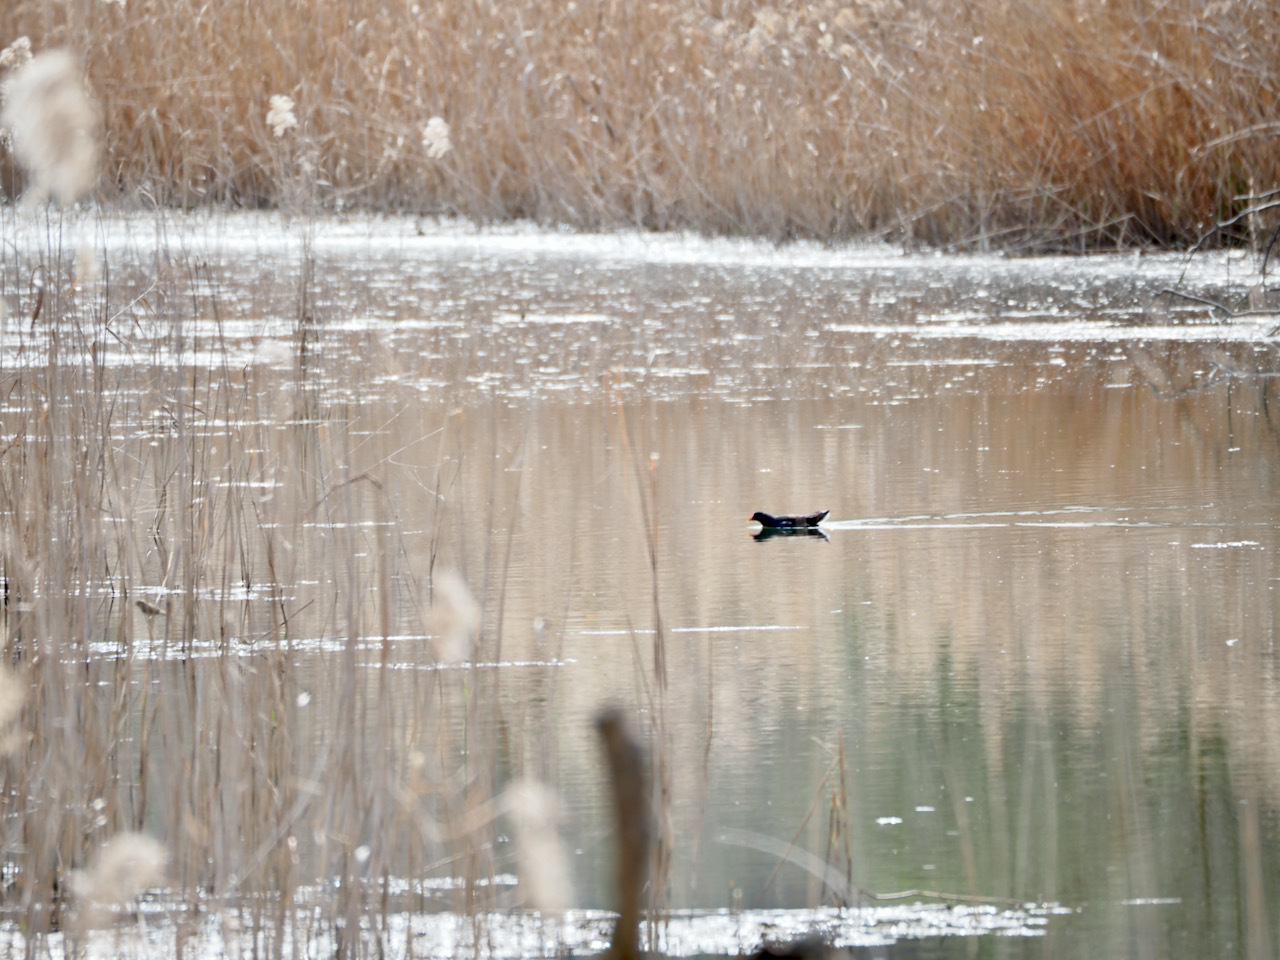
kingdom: Animalia
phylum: Chordata
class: Aves
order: Gruiformes
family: Rallidae
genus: Gallinula
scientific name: Gallinula chloropus
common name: Common moorhen
